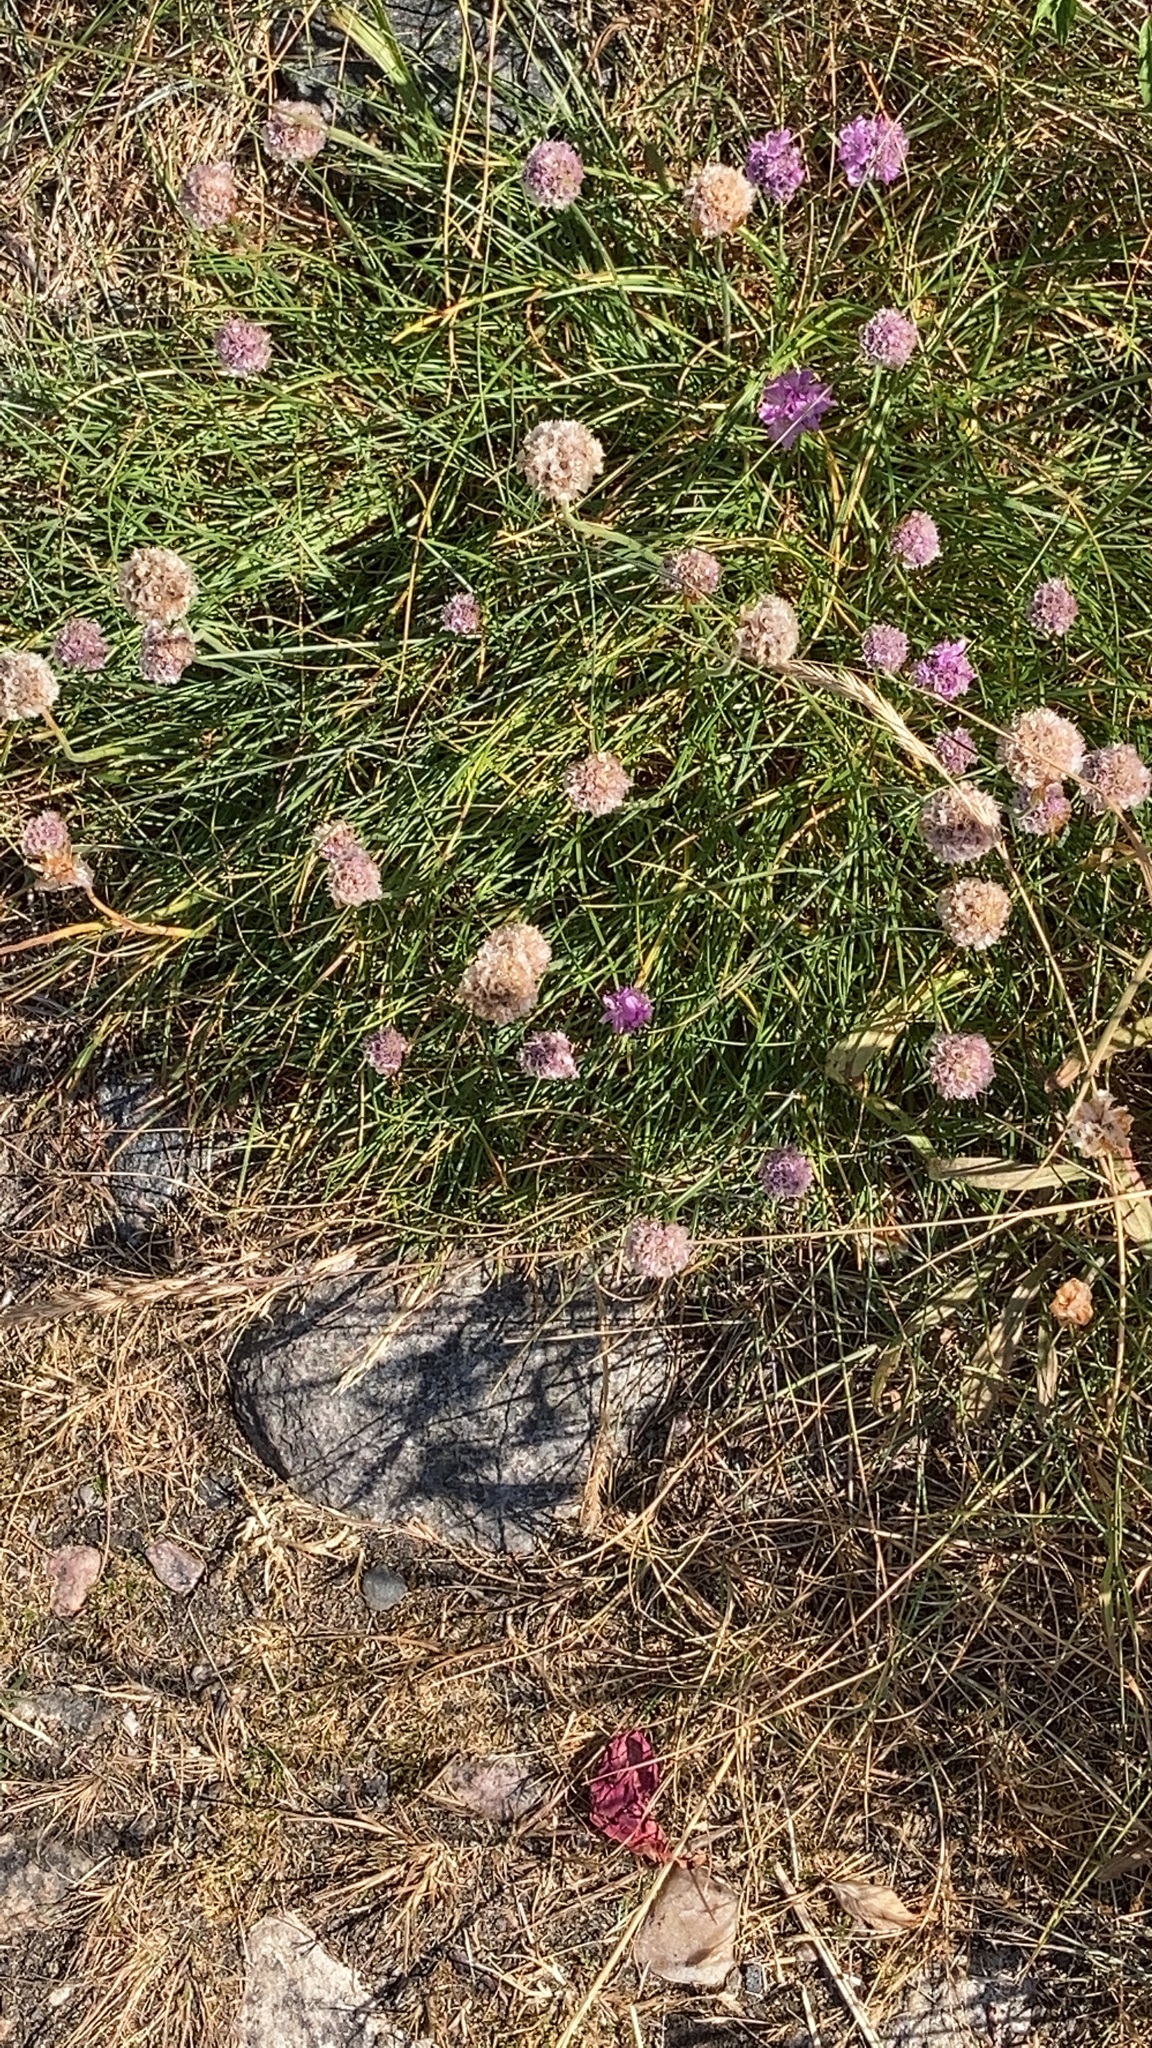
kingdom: Plantae
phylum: Tracheophyta
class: Liliopsida
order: Asparagales
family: Amaryllidaceae
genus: Allium
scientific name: Allium schoenoprasum
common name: Chives
